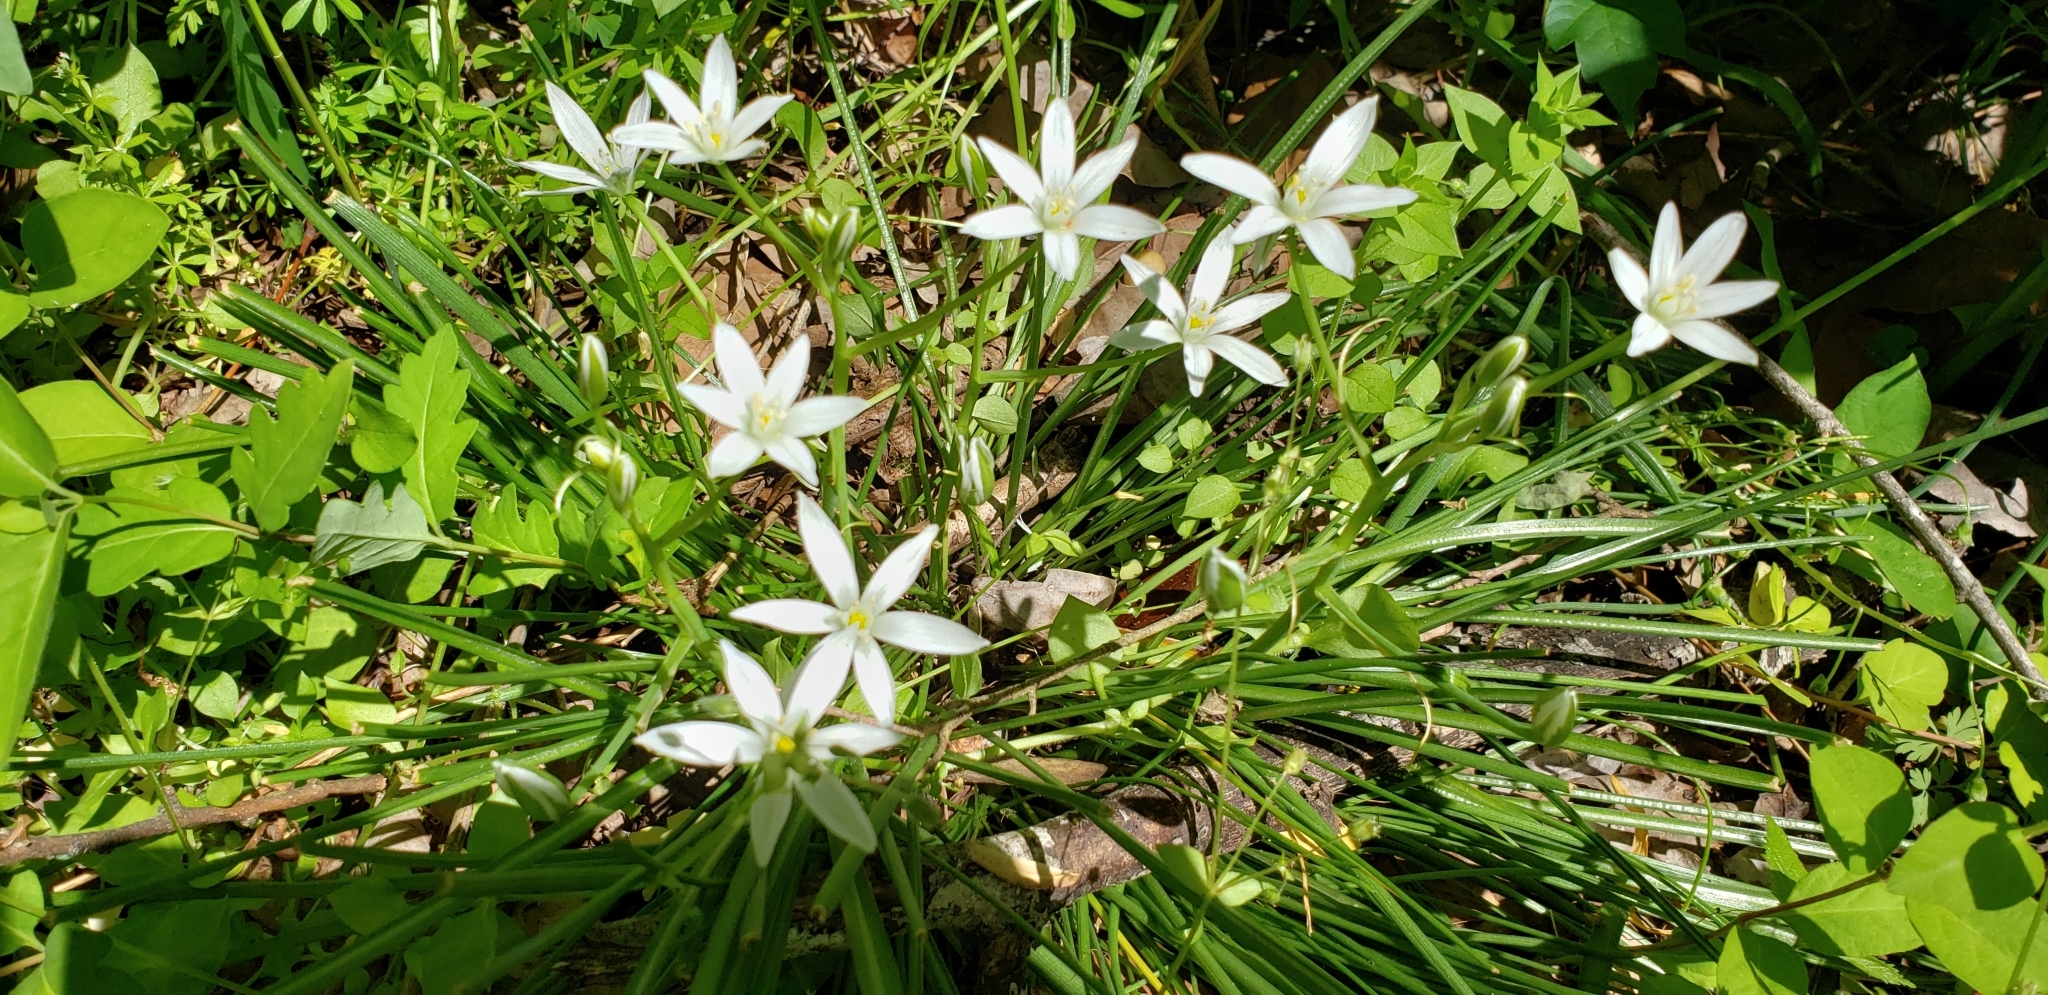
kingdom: Plantae
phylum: Tracheophyta
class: Liliopsida
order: Asparagales
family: Asparagaceae
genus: Ornithogalum
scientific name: Ornithogalum umbellatum
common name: Garden star-of-bethlehem
